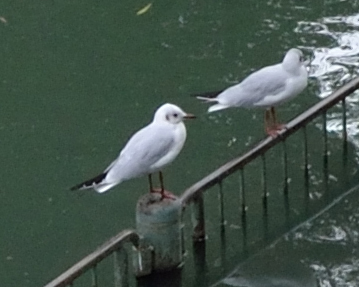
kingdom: Animalia
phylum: Chordata
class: Aves
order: Charadriiformes
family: Laridae
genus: Chroicocephalus
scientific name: Chroicocephalus ridibundus
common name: Black-headed gull
